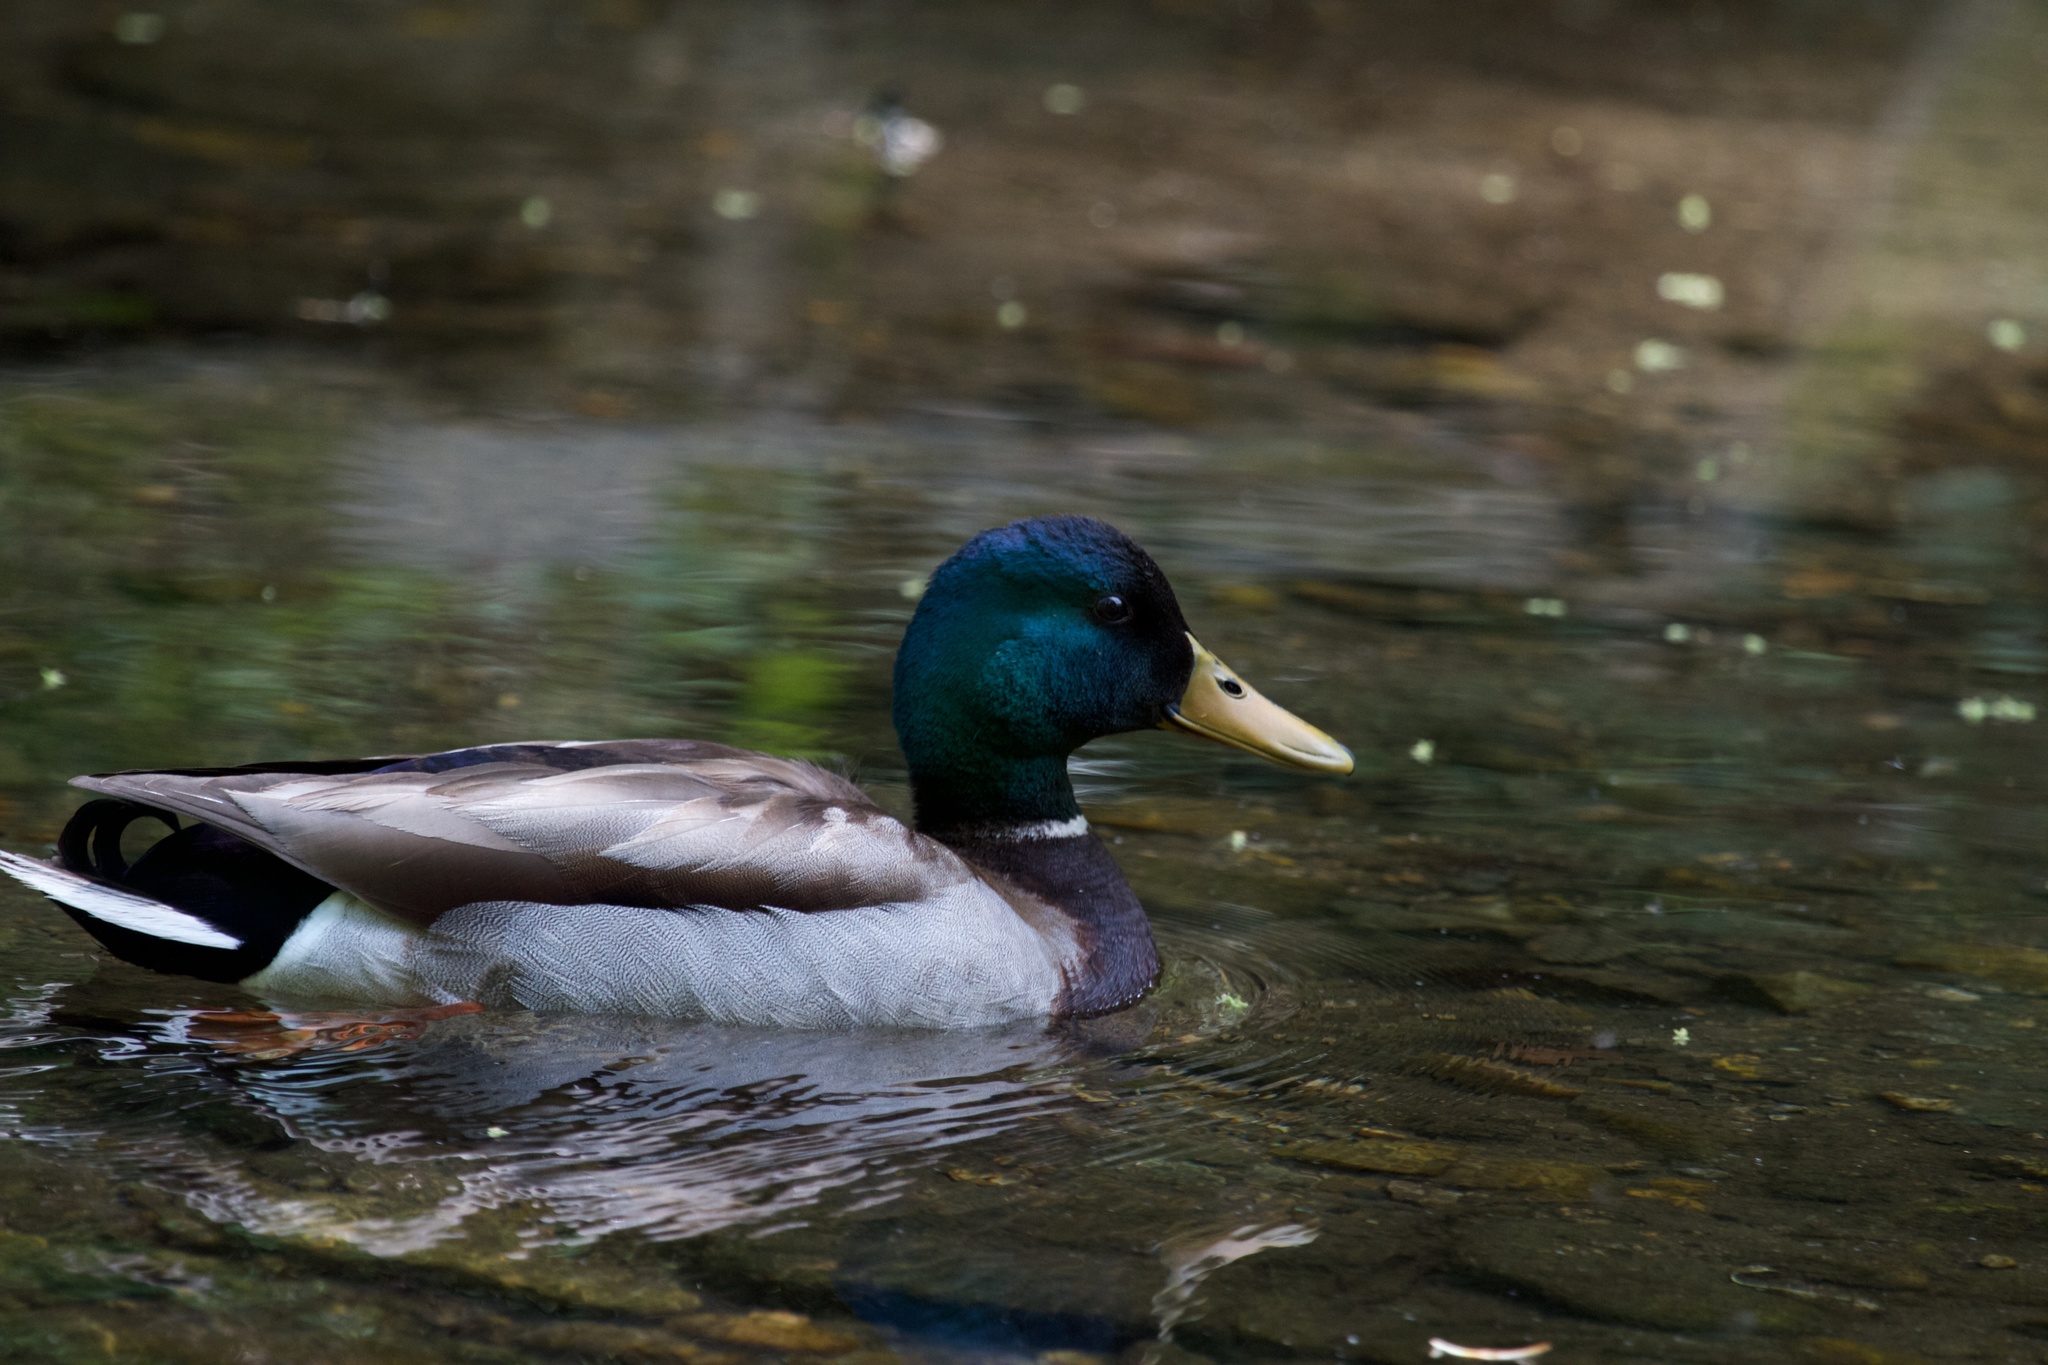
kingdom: Animalia
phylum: Chordata
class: Aves
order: Anseriformes
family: Anatidae
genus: Anas
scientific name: Anas platyrhynchos
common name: Mallard
